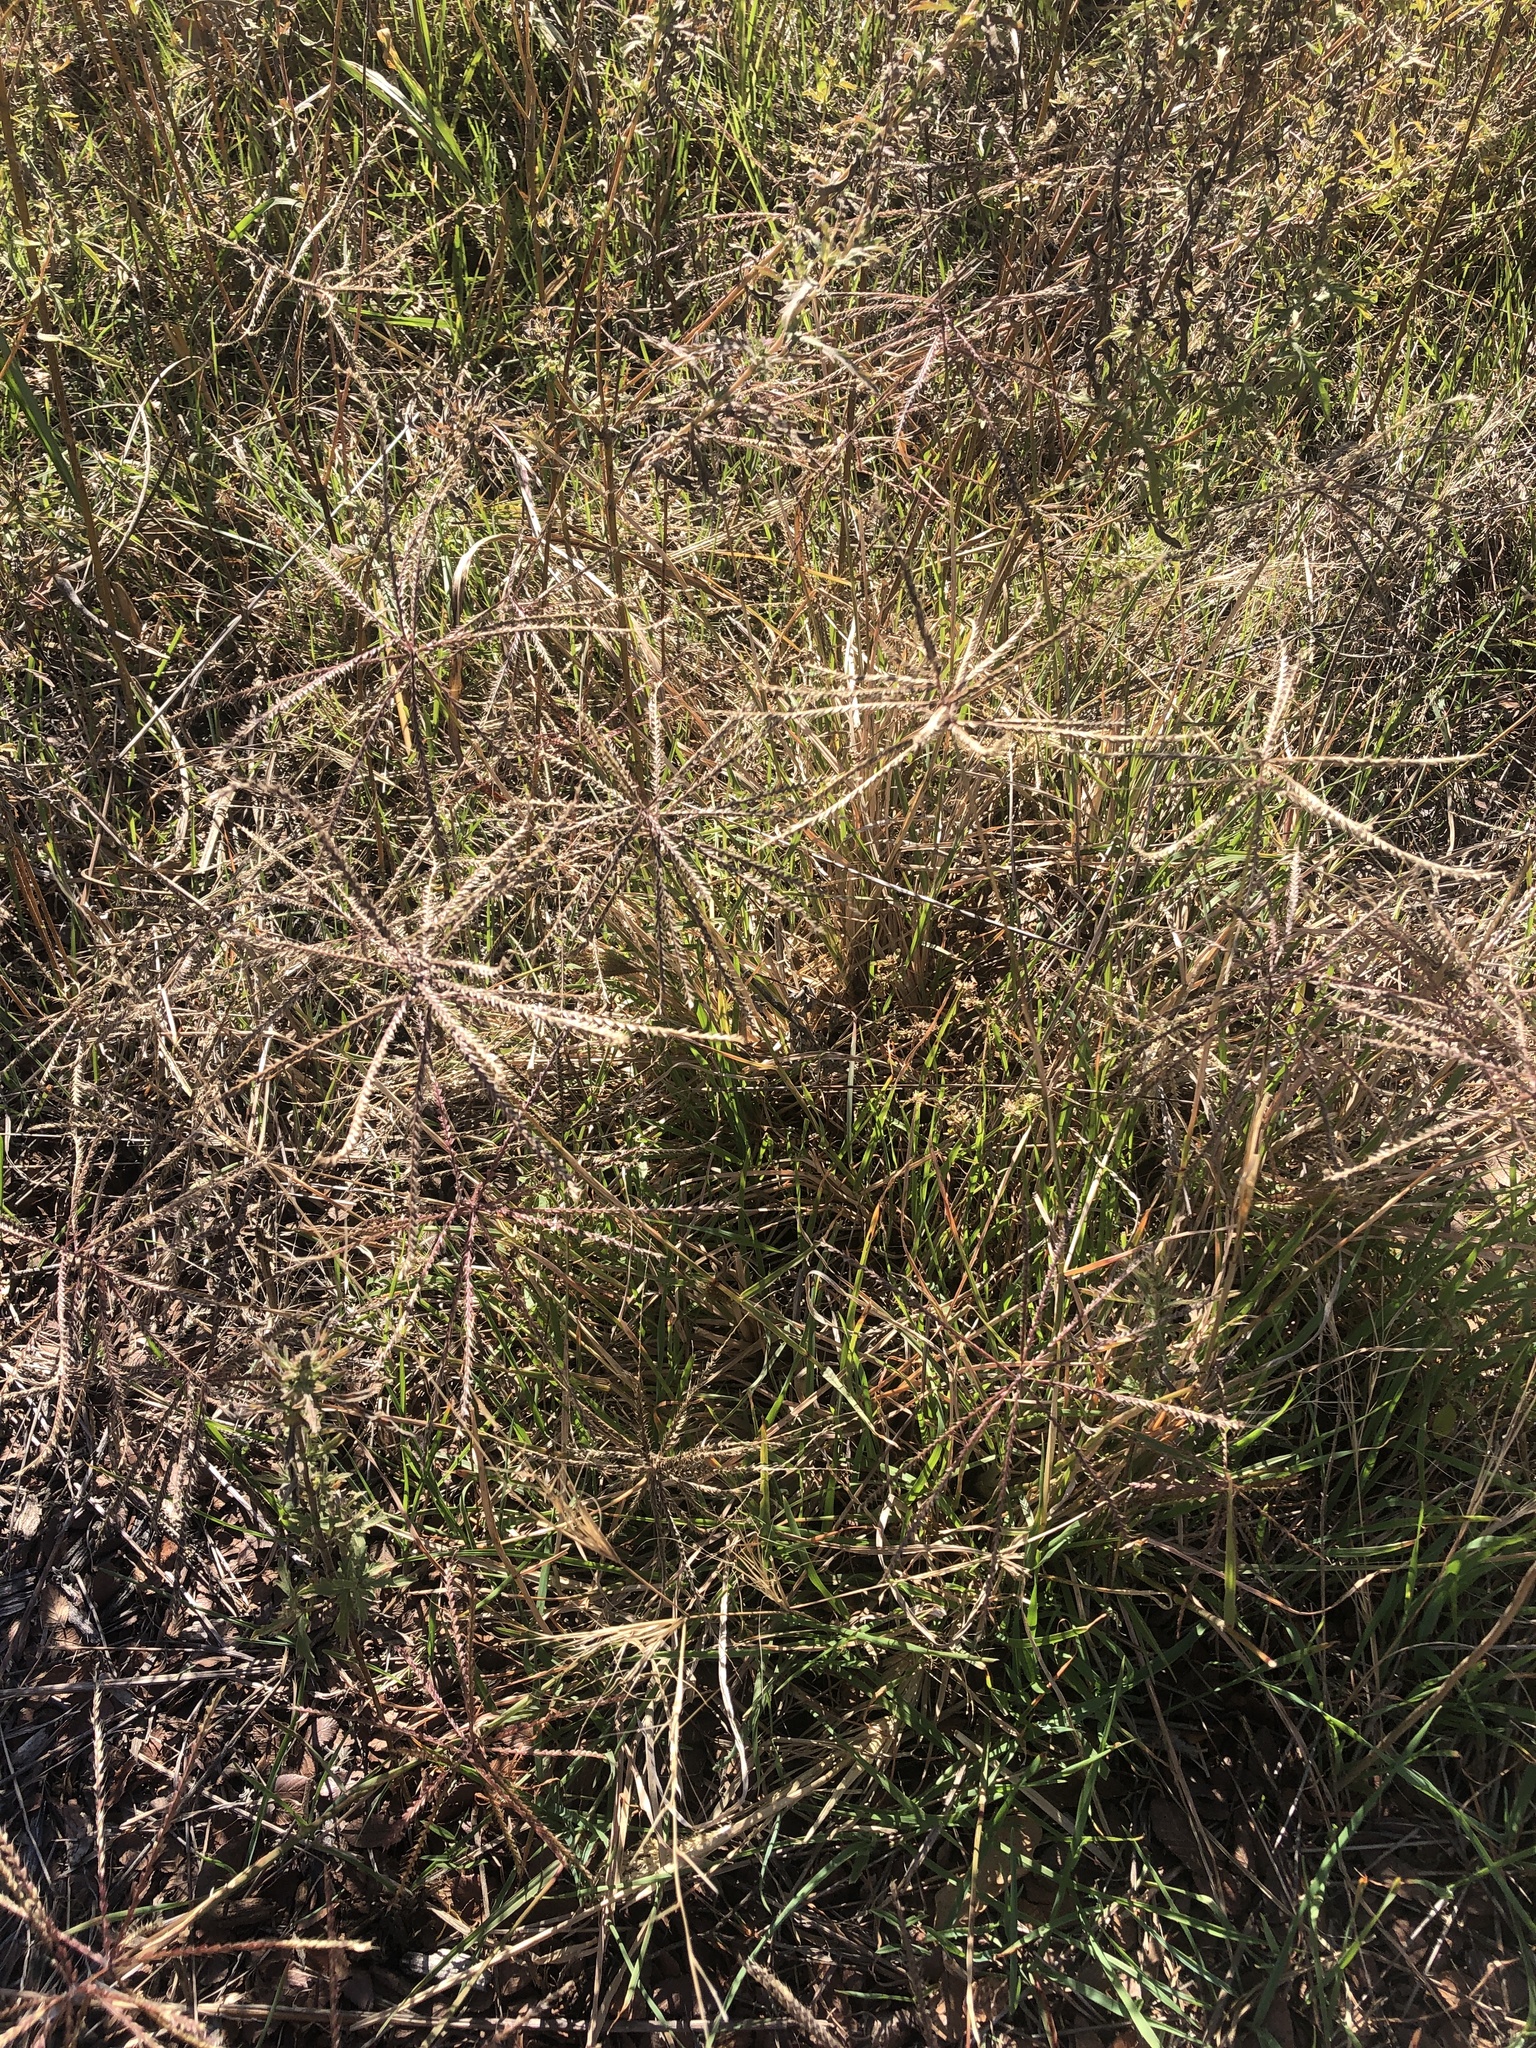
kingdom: Plantae
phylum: Tracheophyta
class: Liliopsida
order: Poales
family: Poaceae
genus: Chloris
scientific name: Chloris verticillata
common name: Tumble windmill grass
